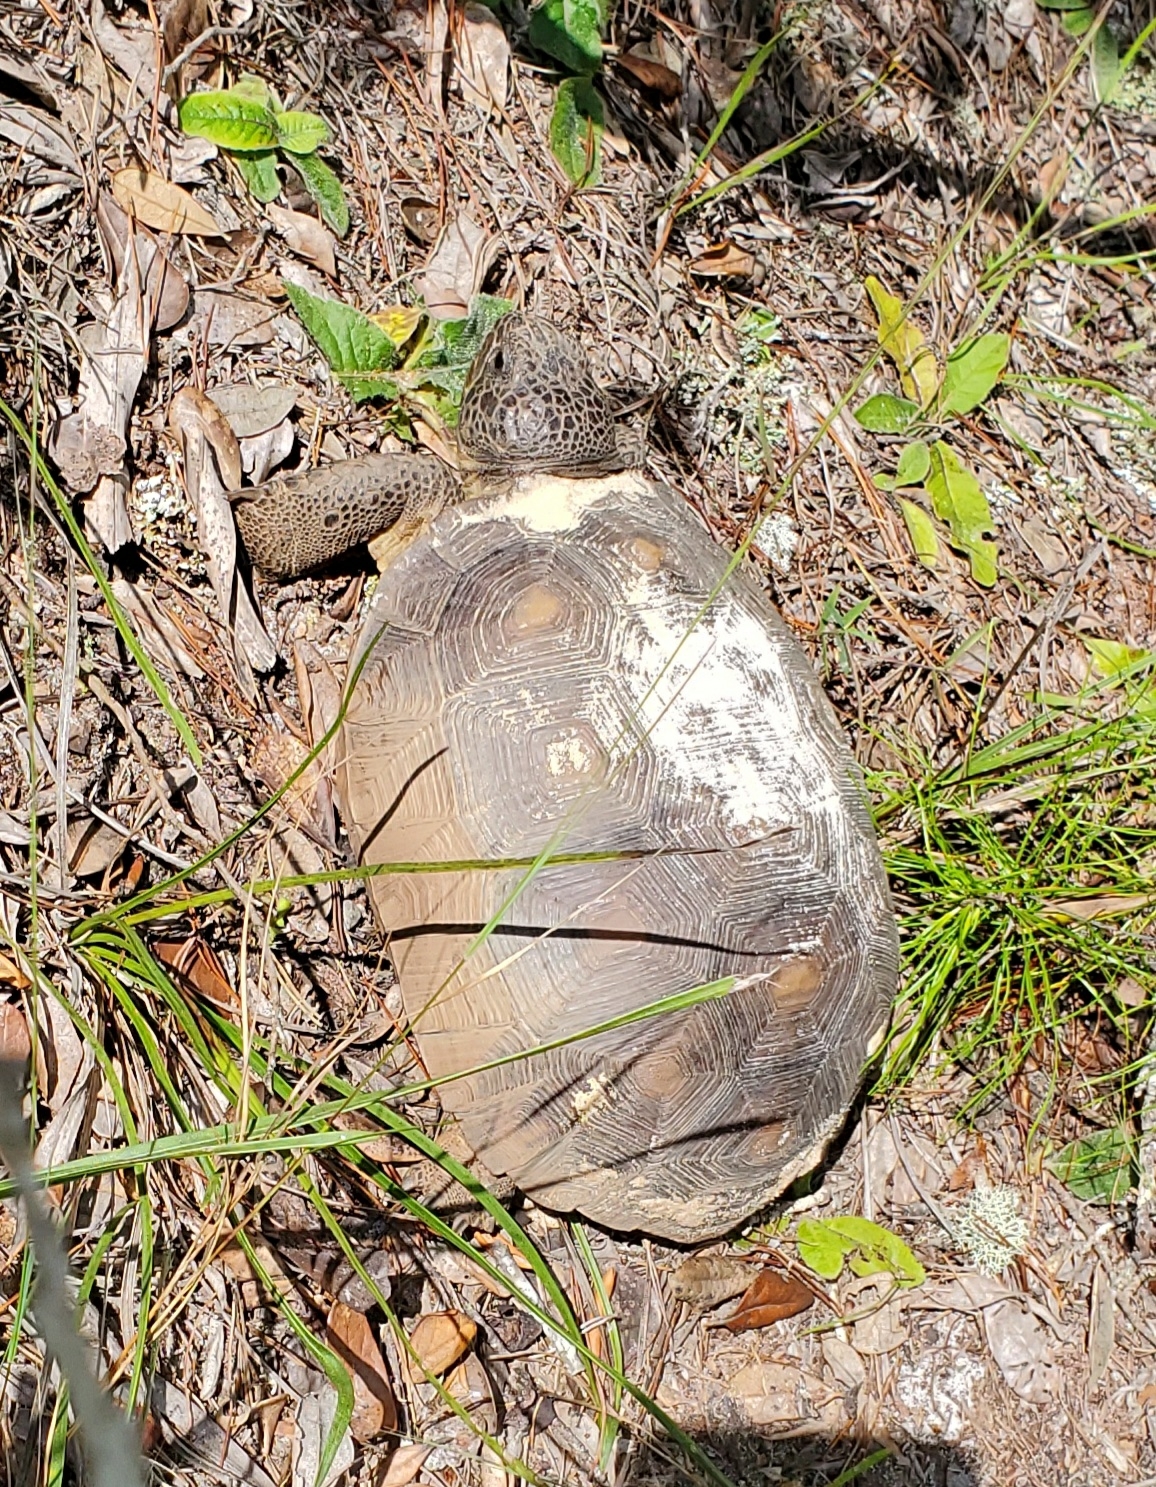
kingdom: Animalia
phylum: Chordata
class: Testudines
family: Testudinidae
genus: Gopherus
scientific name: Gopherus polyphemus
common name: Florida gopher tortoise
